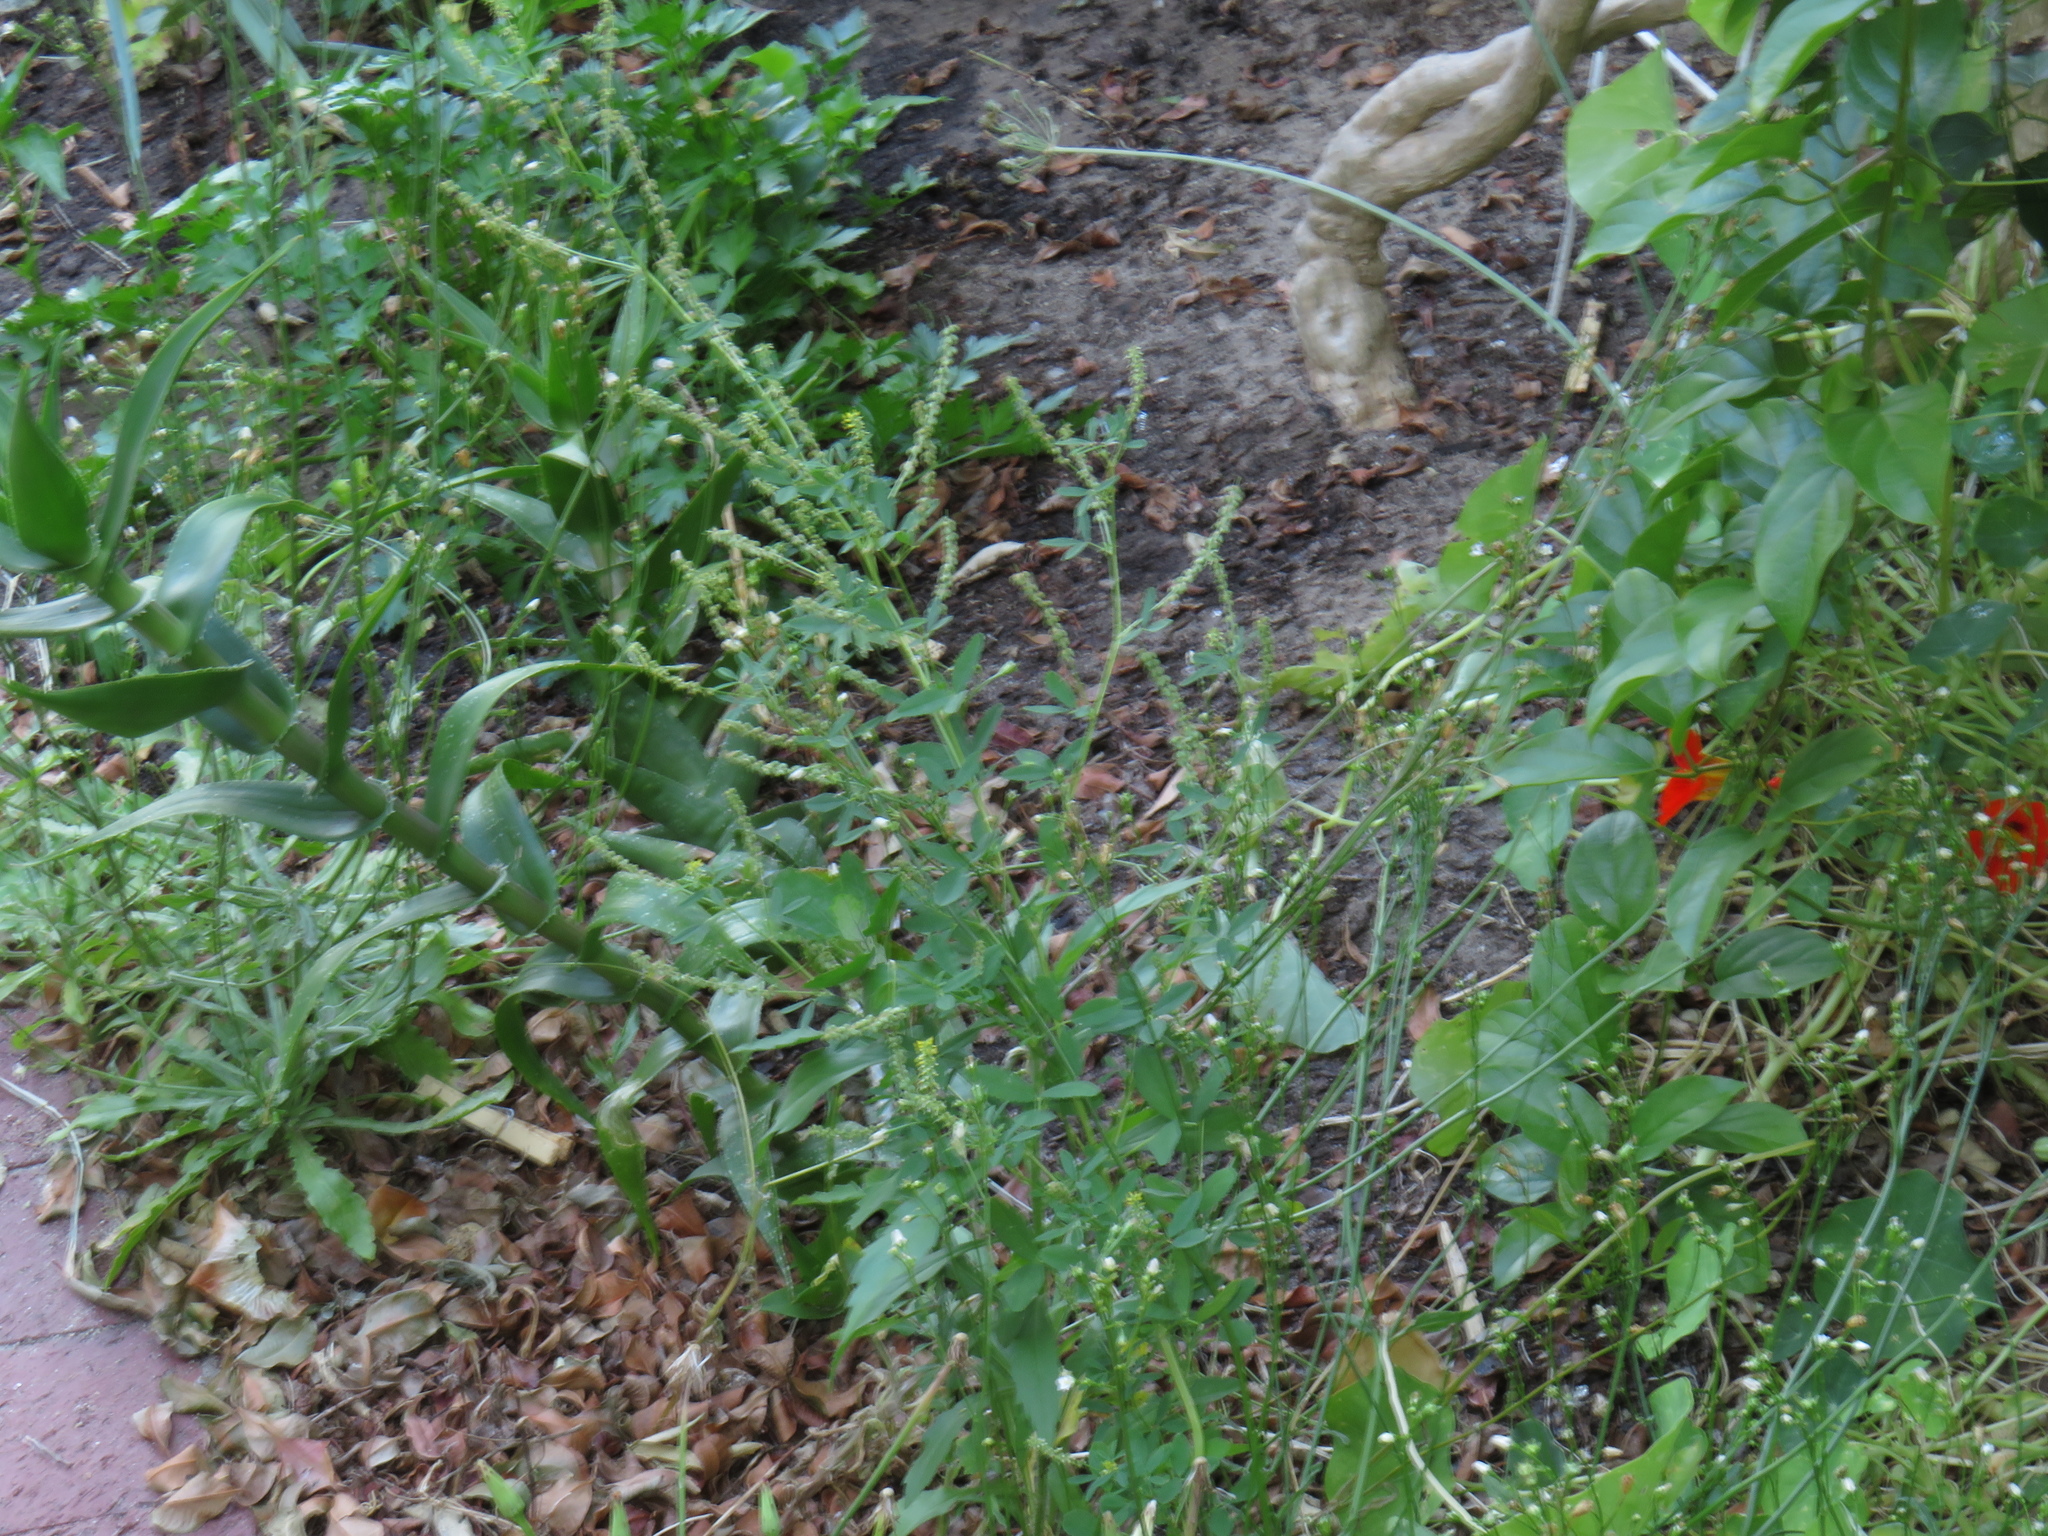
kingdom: Plantae
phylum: Tracheophyta
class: Magnoliopsida
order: Fabales
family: Fabaceae
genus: Melilotus
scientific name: Melilotus indicus
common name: Small melilot
